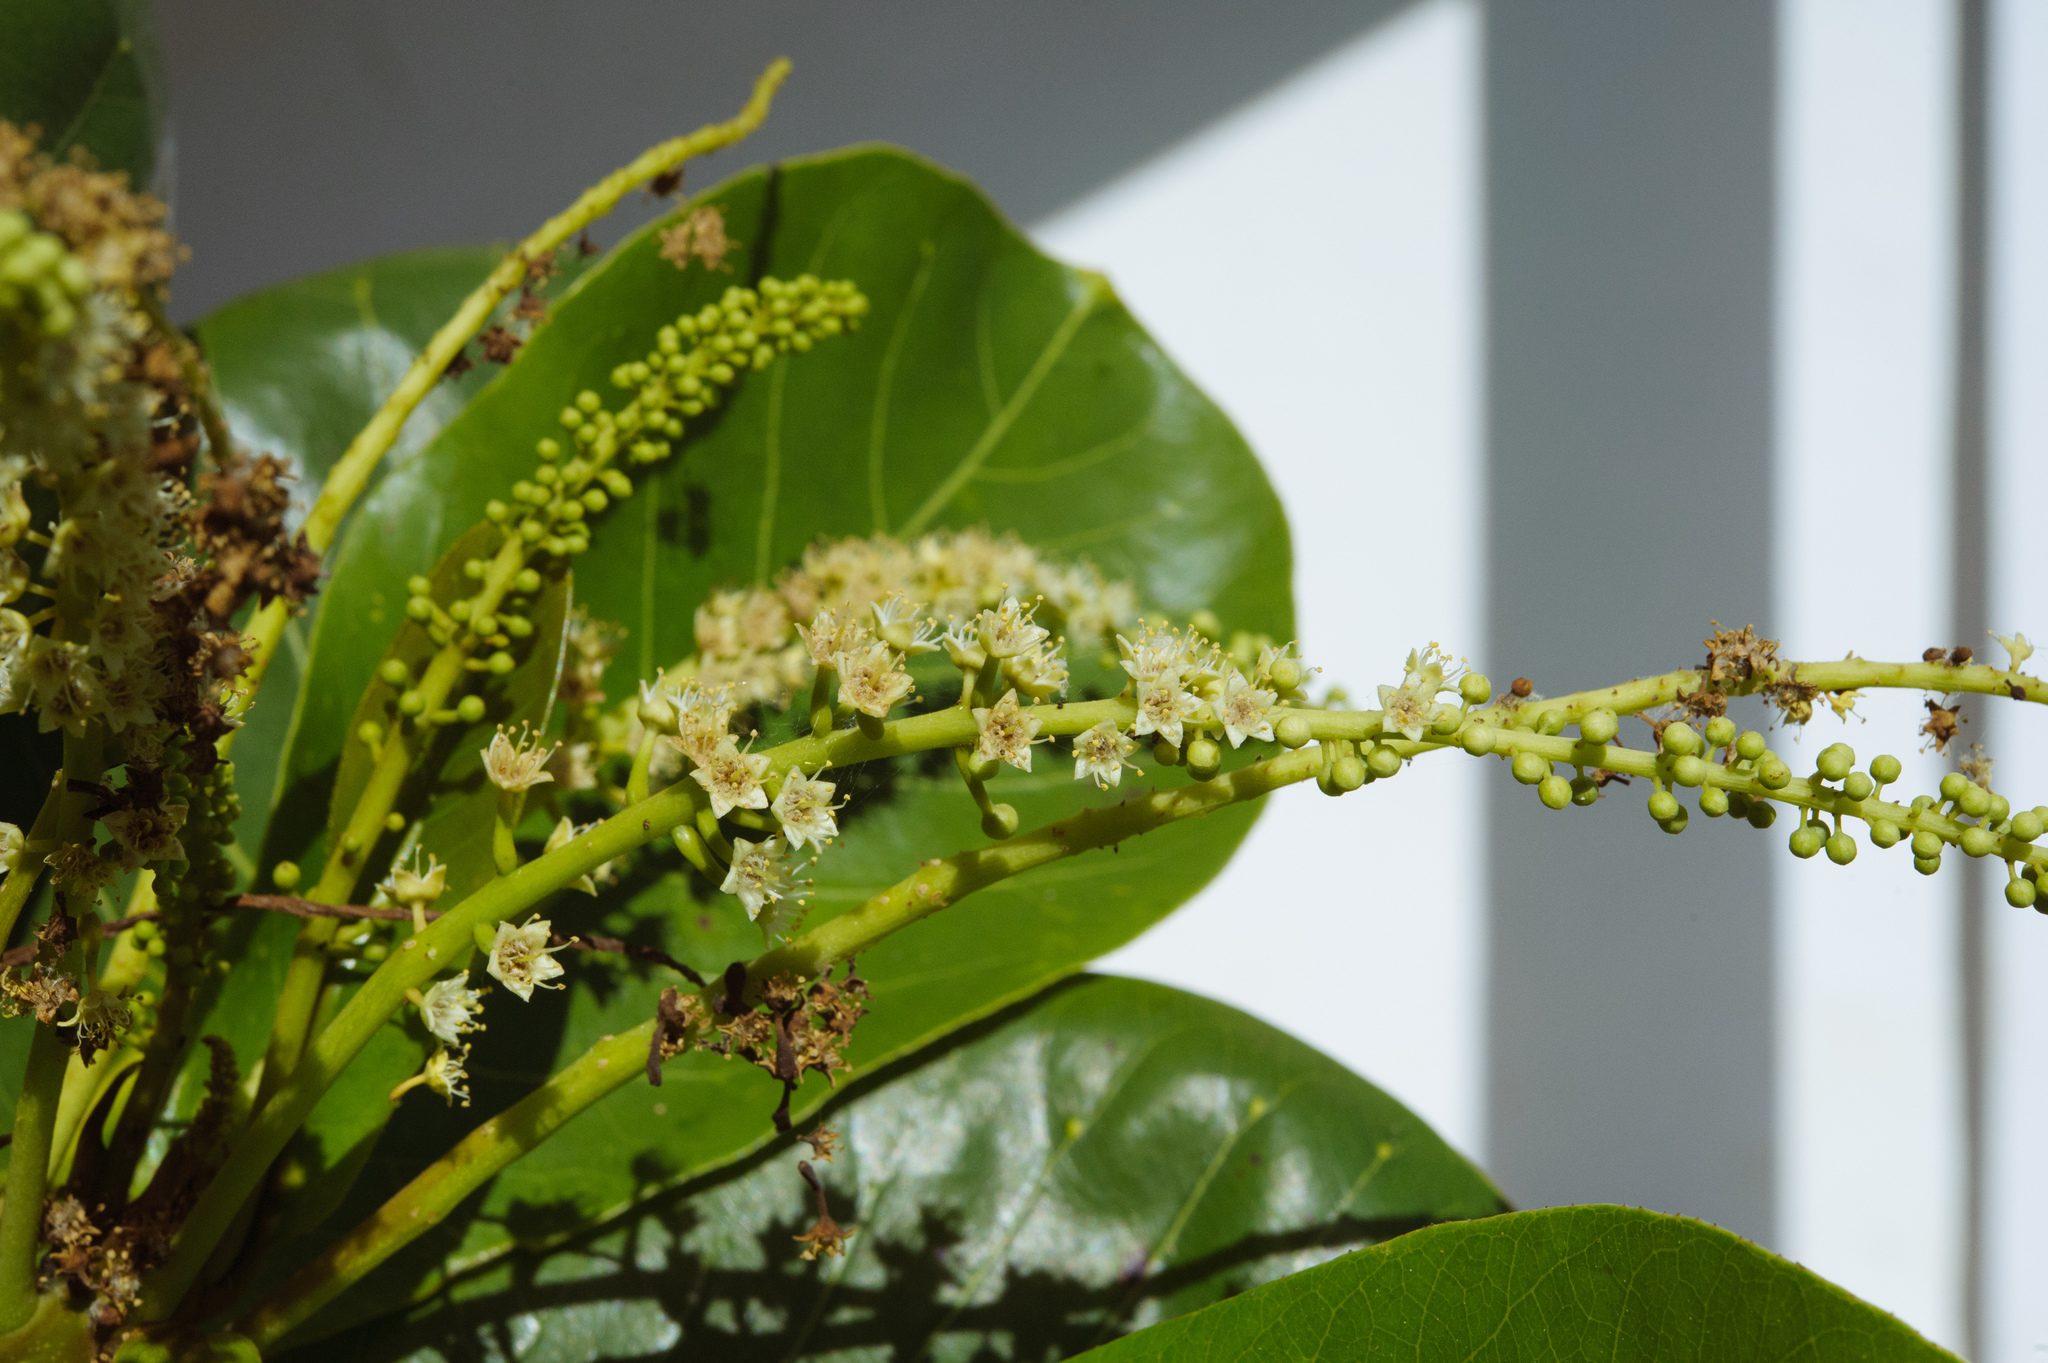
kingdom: Plantae
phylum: Tracheophyta
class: Magnoliopsida
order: Myrtales
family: Combretaceae
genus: Terminalia
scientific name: Terminalia catappa
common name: Tropical almond
